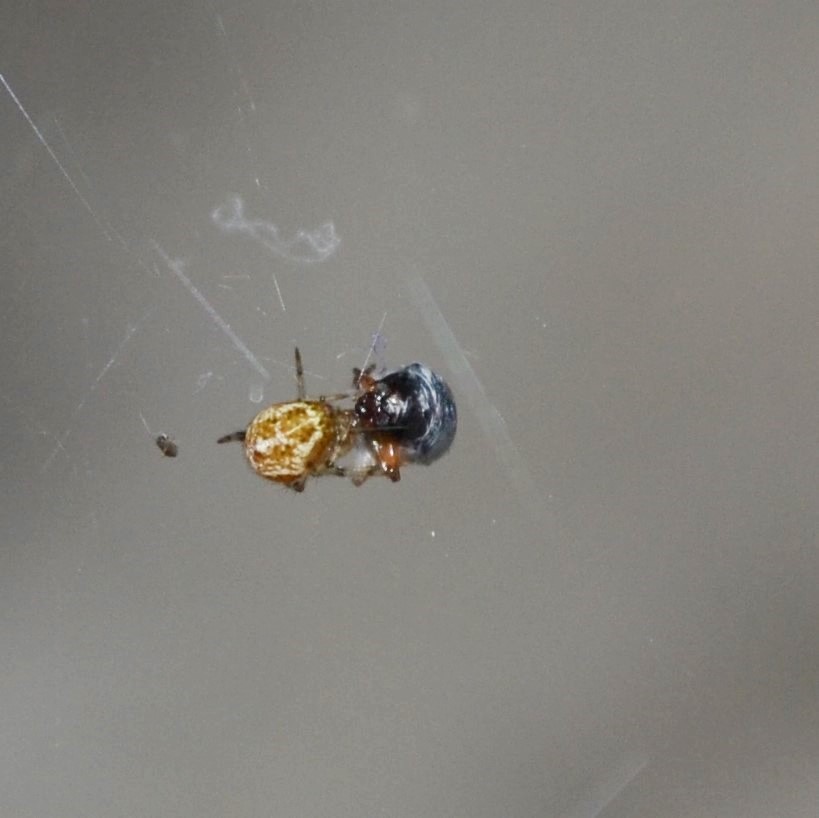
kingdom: Animalia
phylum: Arthropoda
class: Arachnida
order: Araneae
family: Theridiidae
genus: Parasteatoda
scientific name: Parasteatoda tepidariorum
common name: Common house spider
